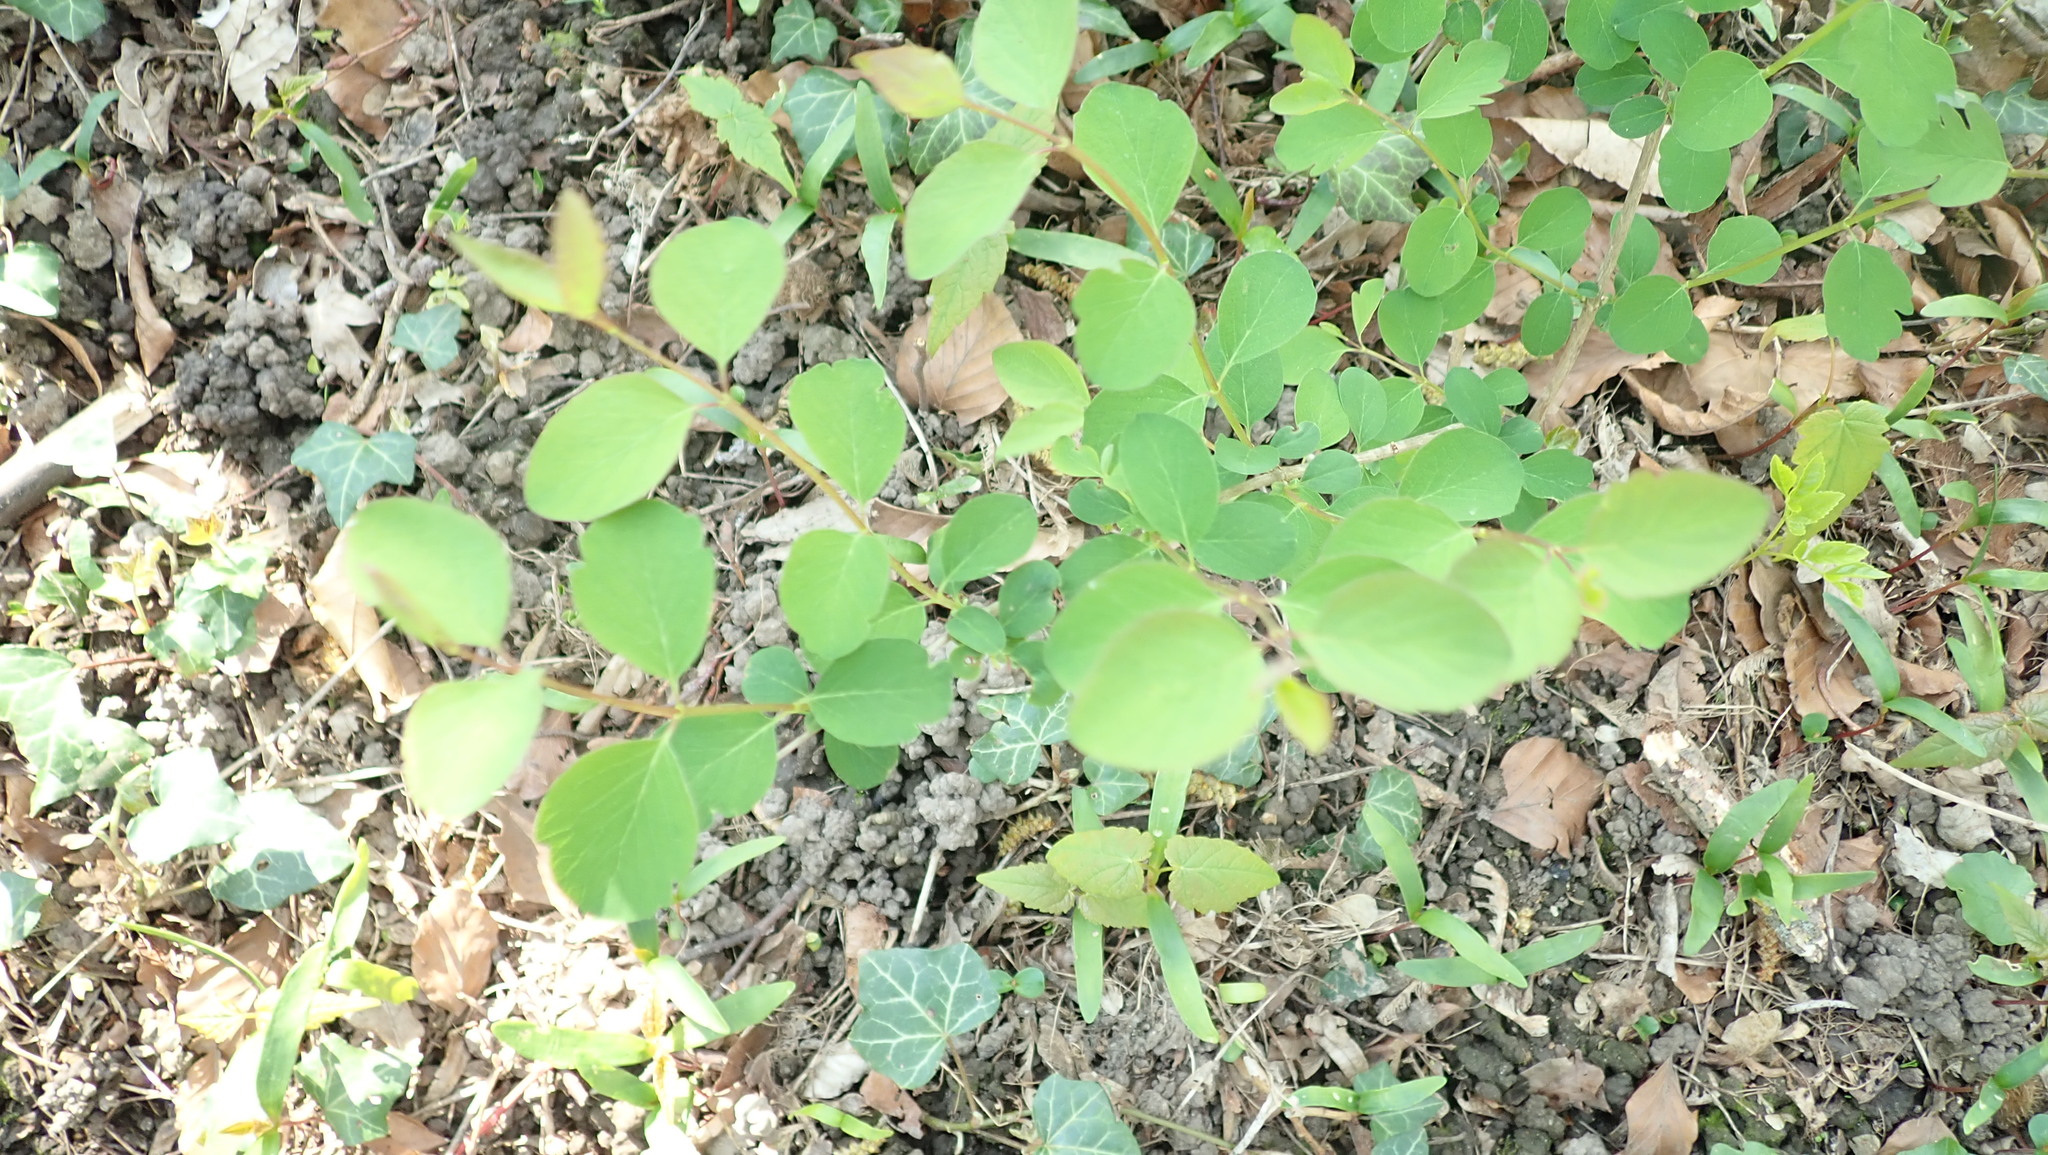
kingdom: Plantae
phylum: Tracheophyta
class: Magnoliopsida
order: Dipsacales
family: Caprifoliaceae
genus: Symphoricarpos
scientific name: Symphoricarpos albus
